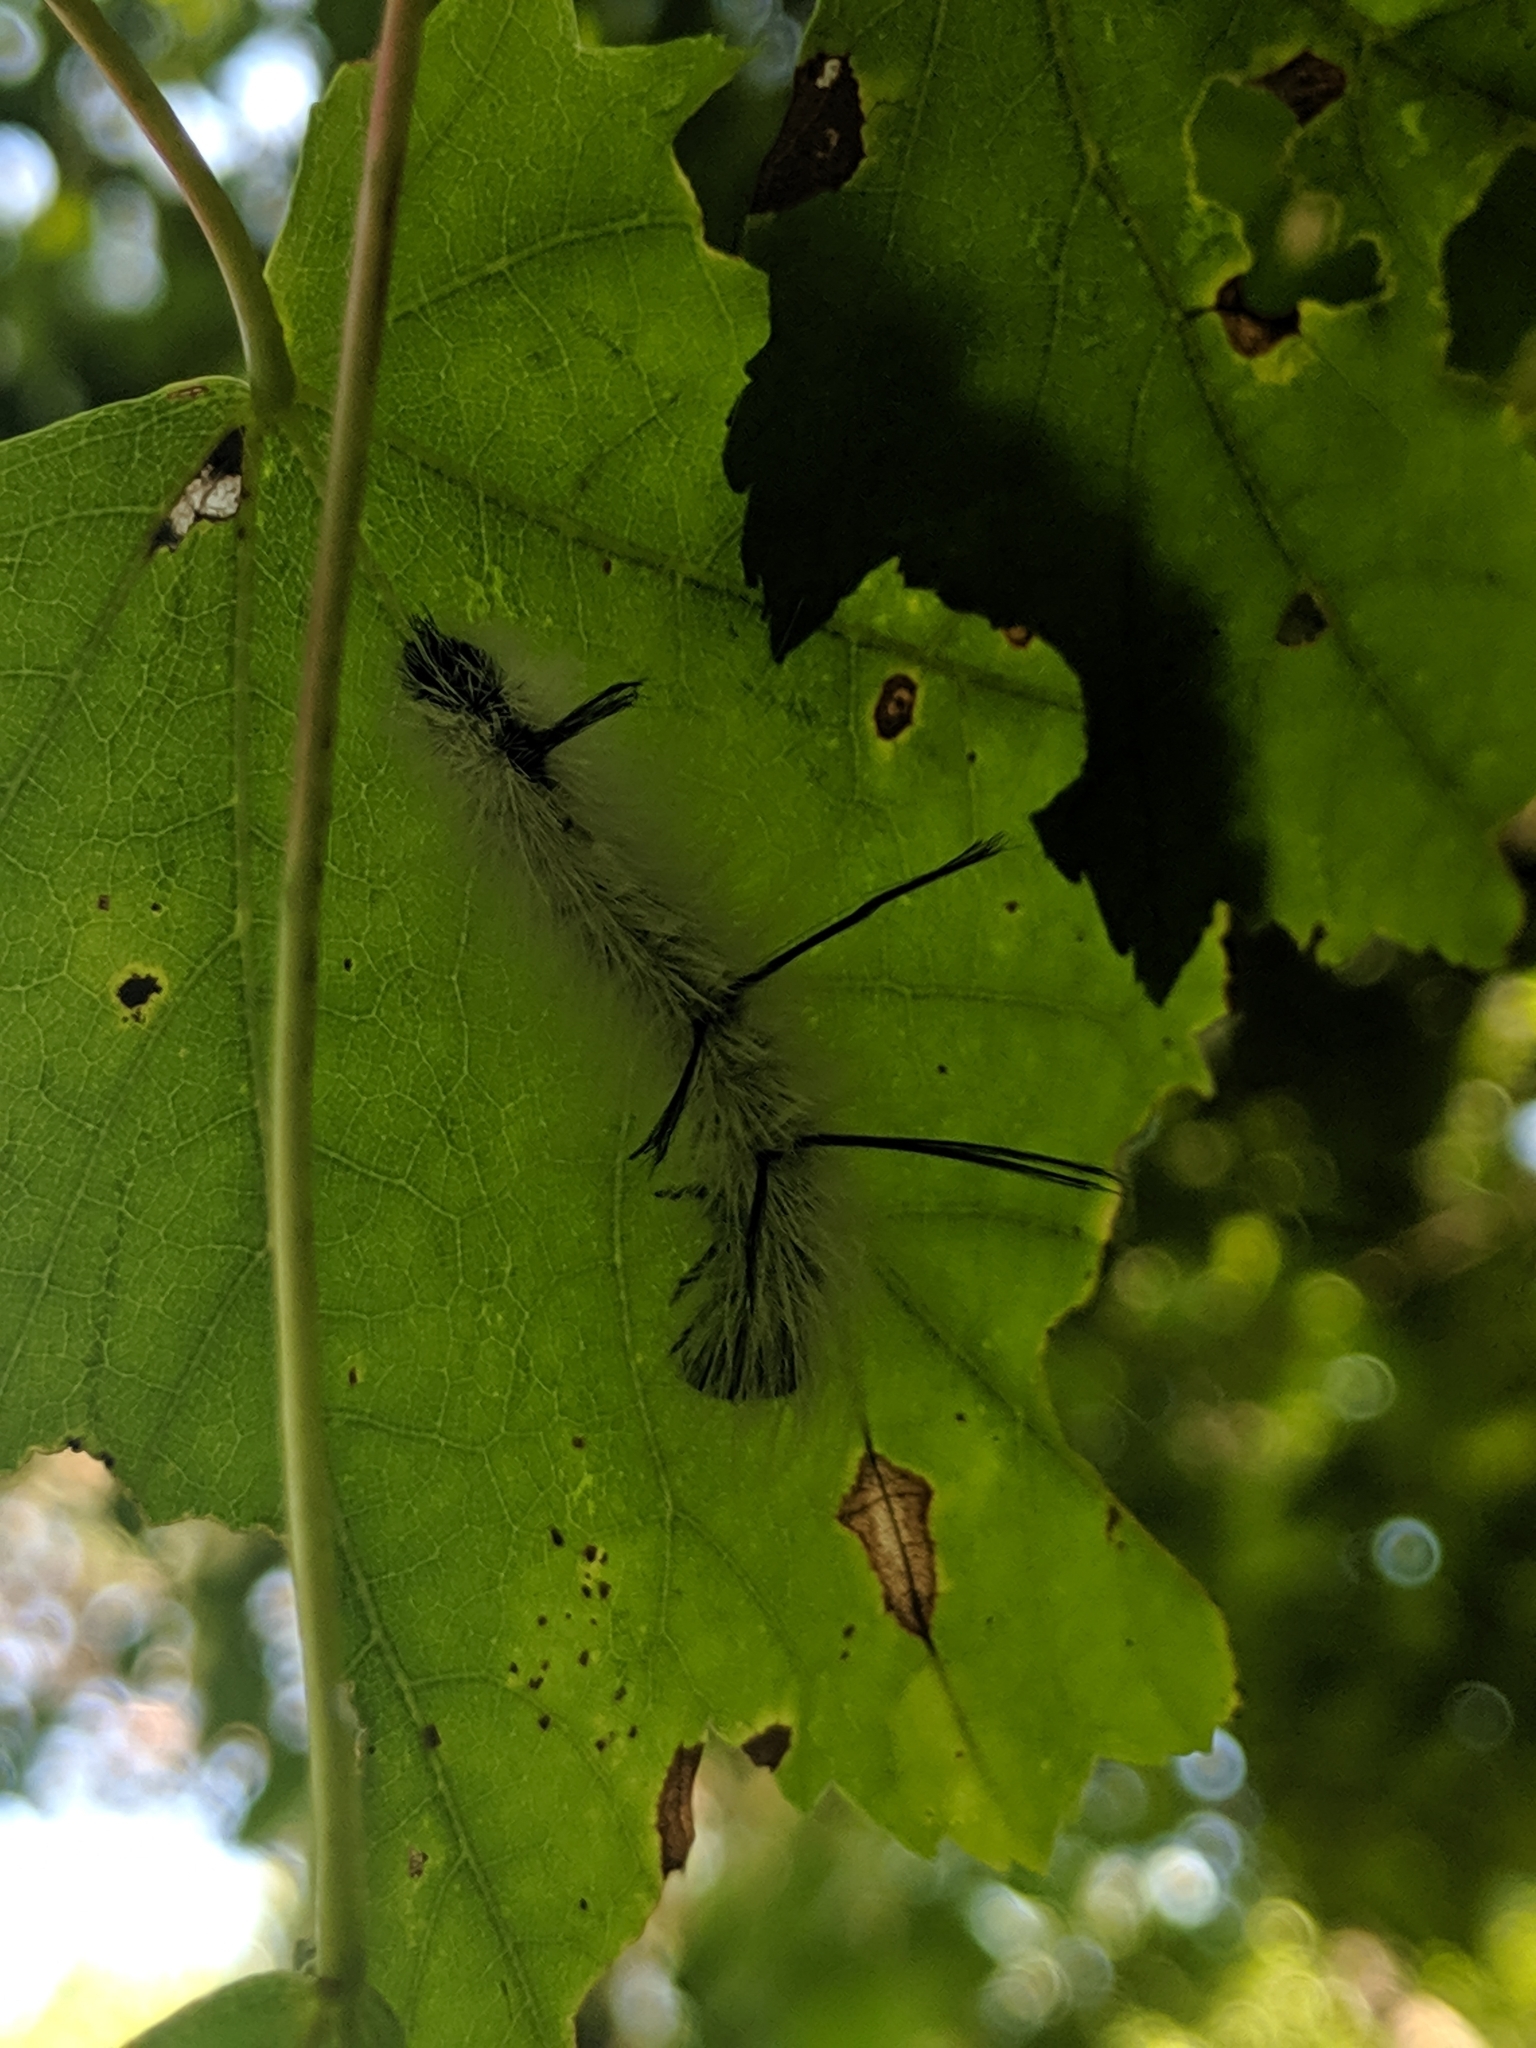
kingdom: Animalia
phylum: Arthropoda
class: Insecta
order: Lepidoptera
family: Noctuidae
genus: Acronicta
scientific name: Acronicta americana
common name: American dagger
